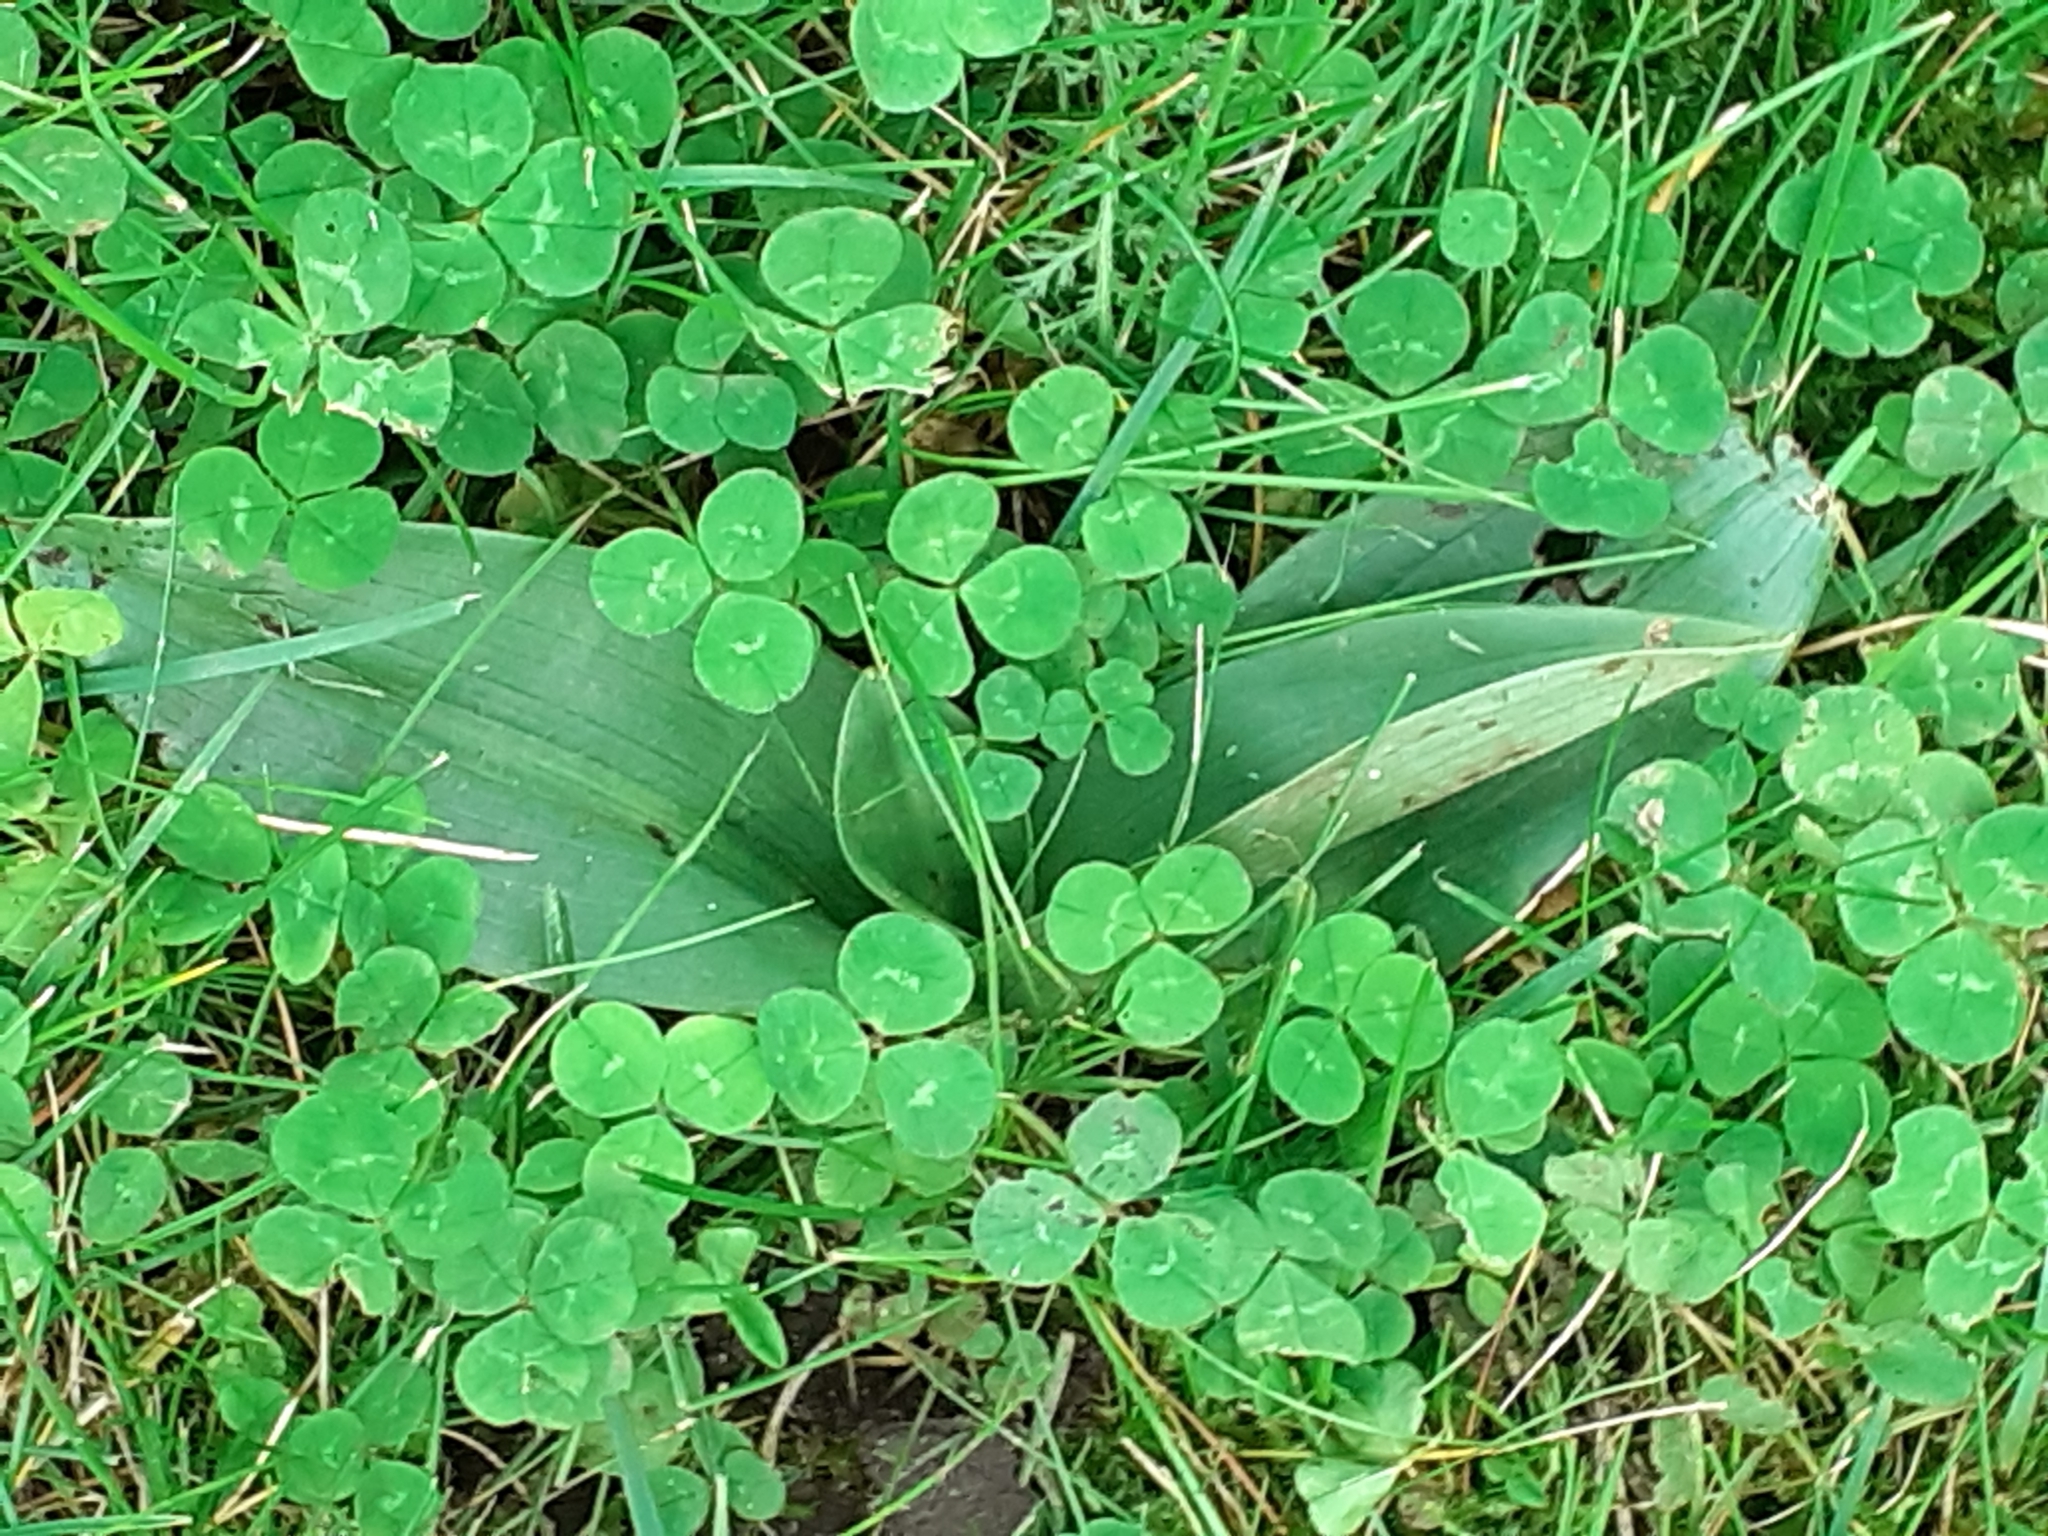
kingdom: Plantae
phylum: Tracheophyta
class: Liliopsida
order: Asparagales
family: Orchidaceae
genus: Ophrys
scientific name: Ophrys apifera
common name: Bee orchid
